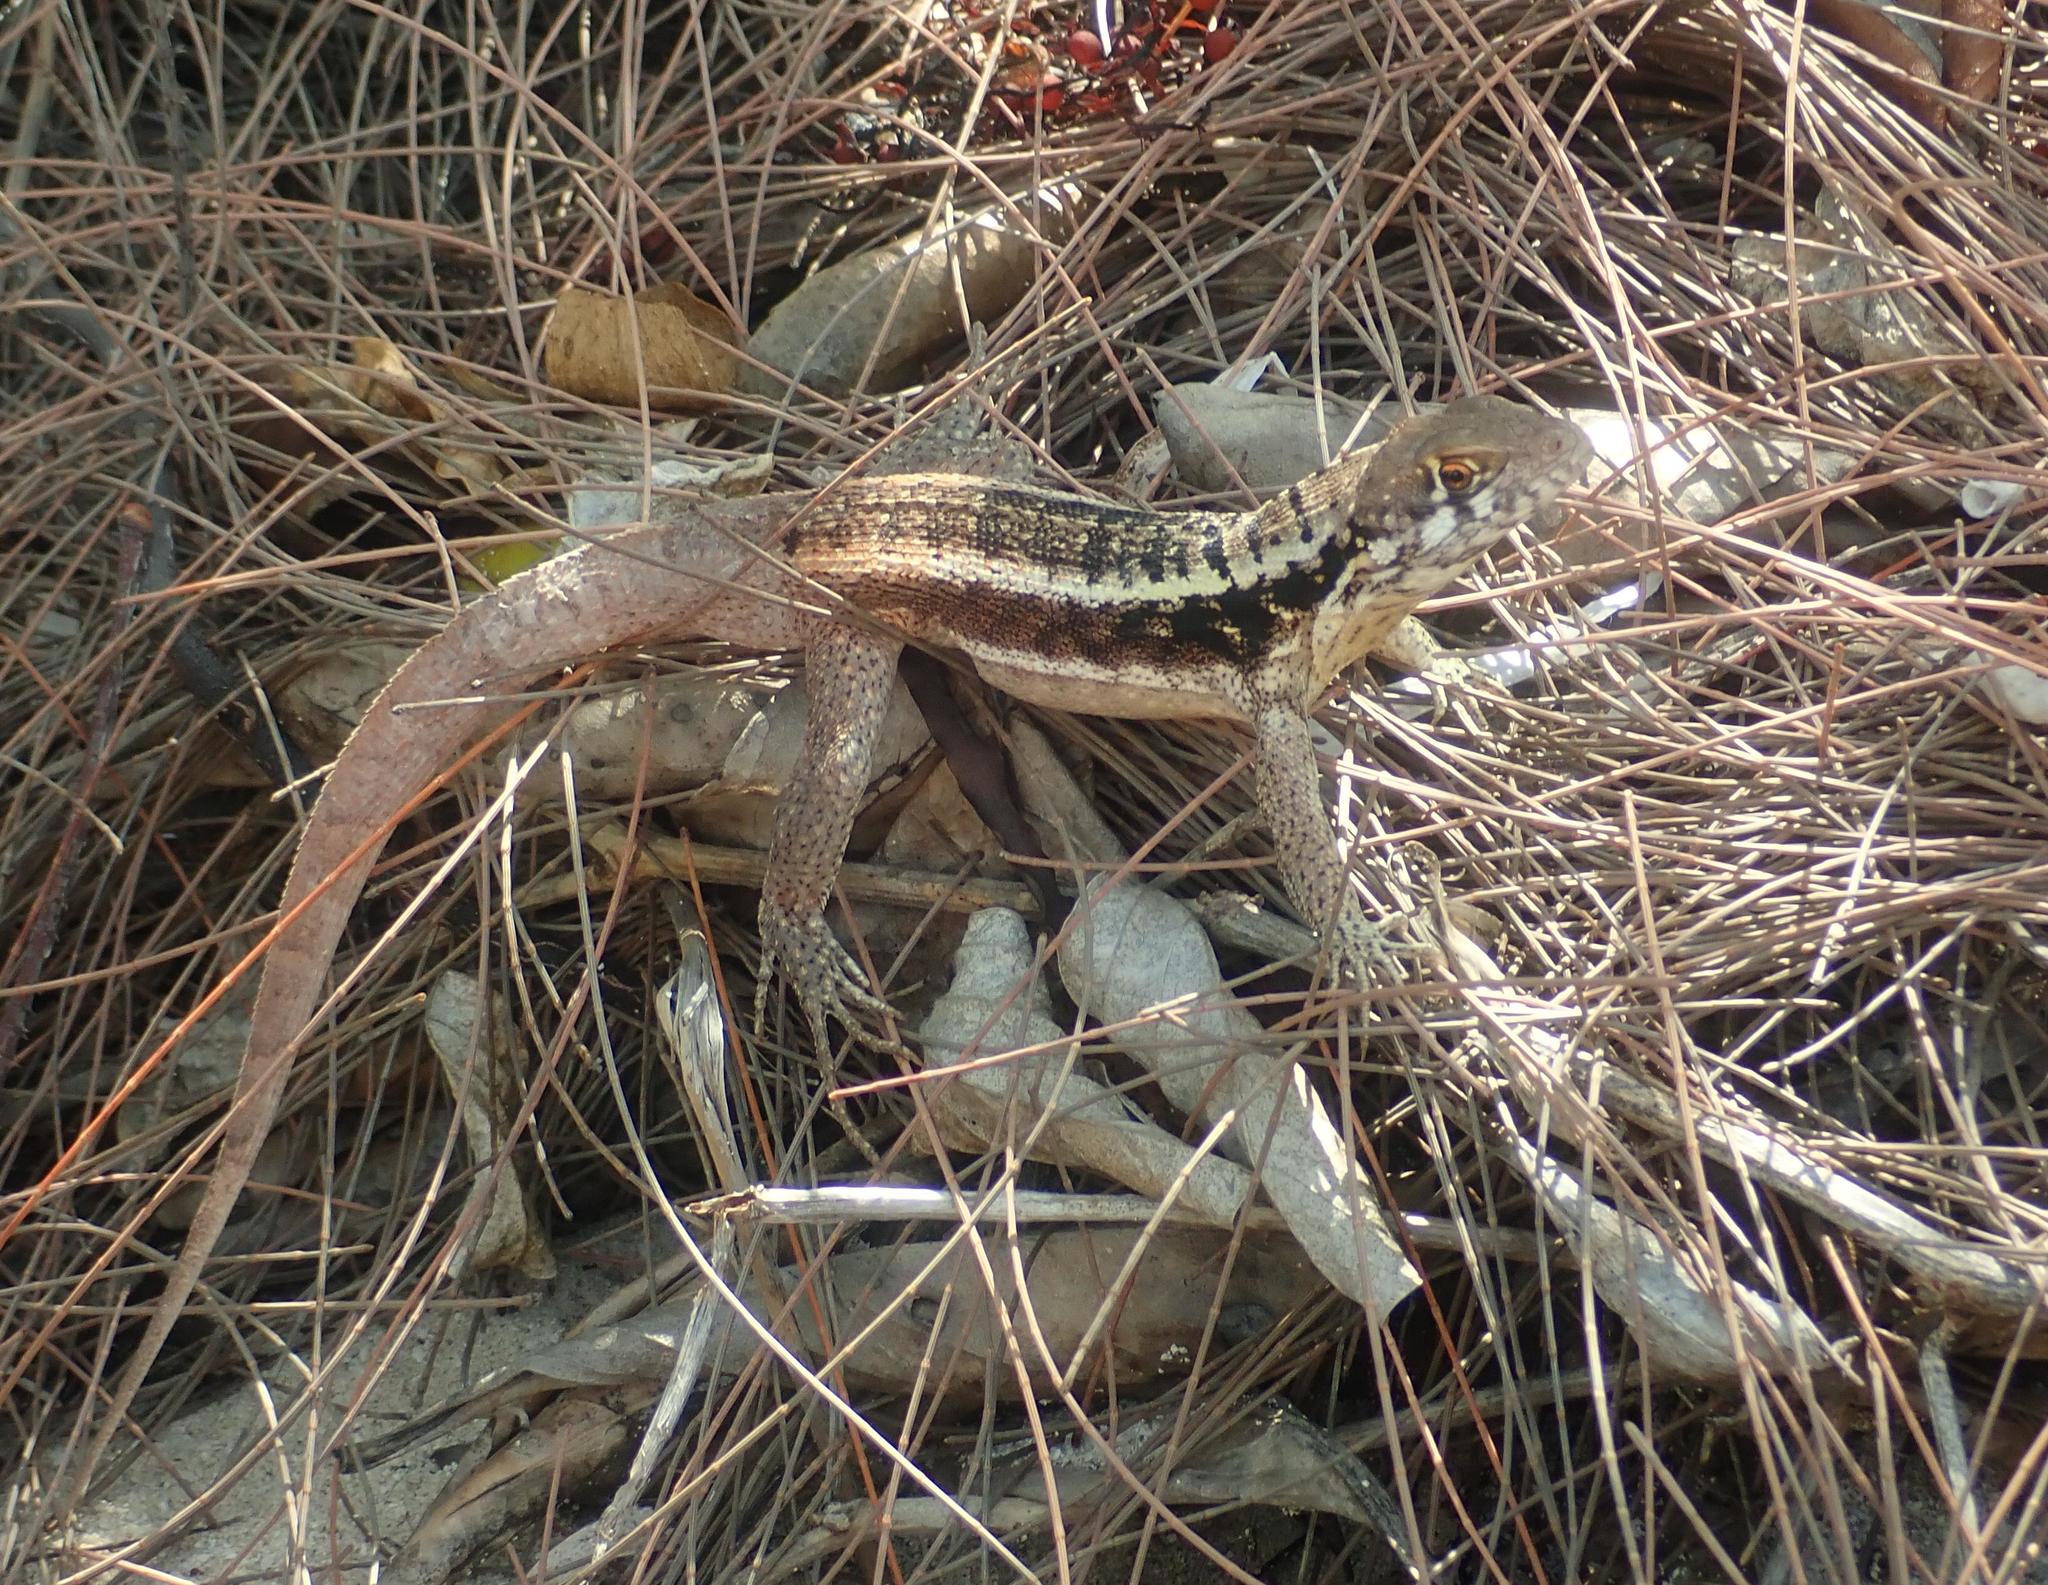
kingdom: Animalia
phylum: Chordata
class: Squamata
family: Leiocephalidae
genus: Leiocephalus
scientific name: Leiocephalus psammodromus
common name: Bastion cay curlytail lizard
